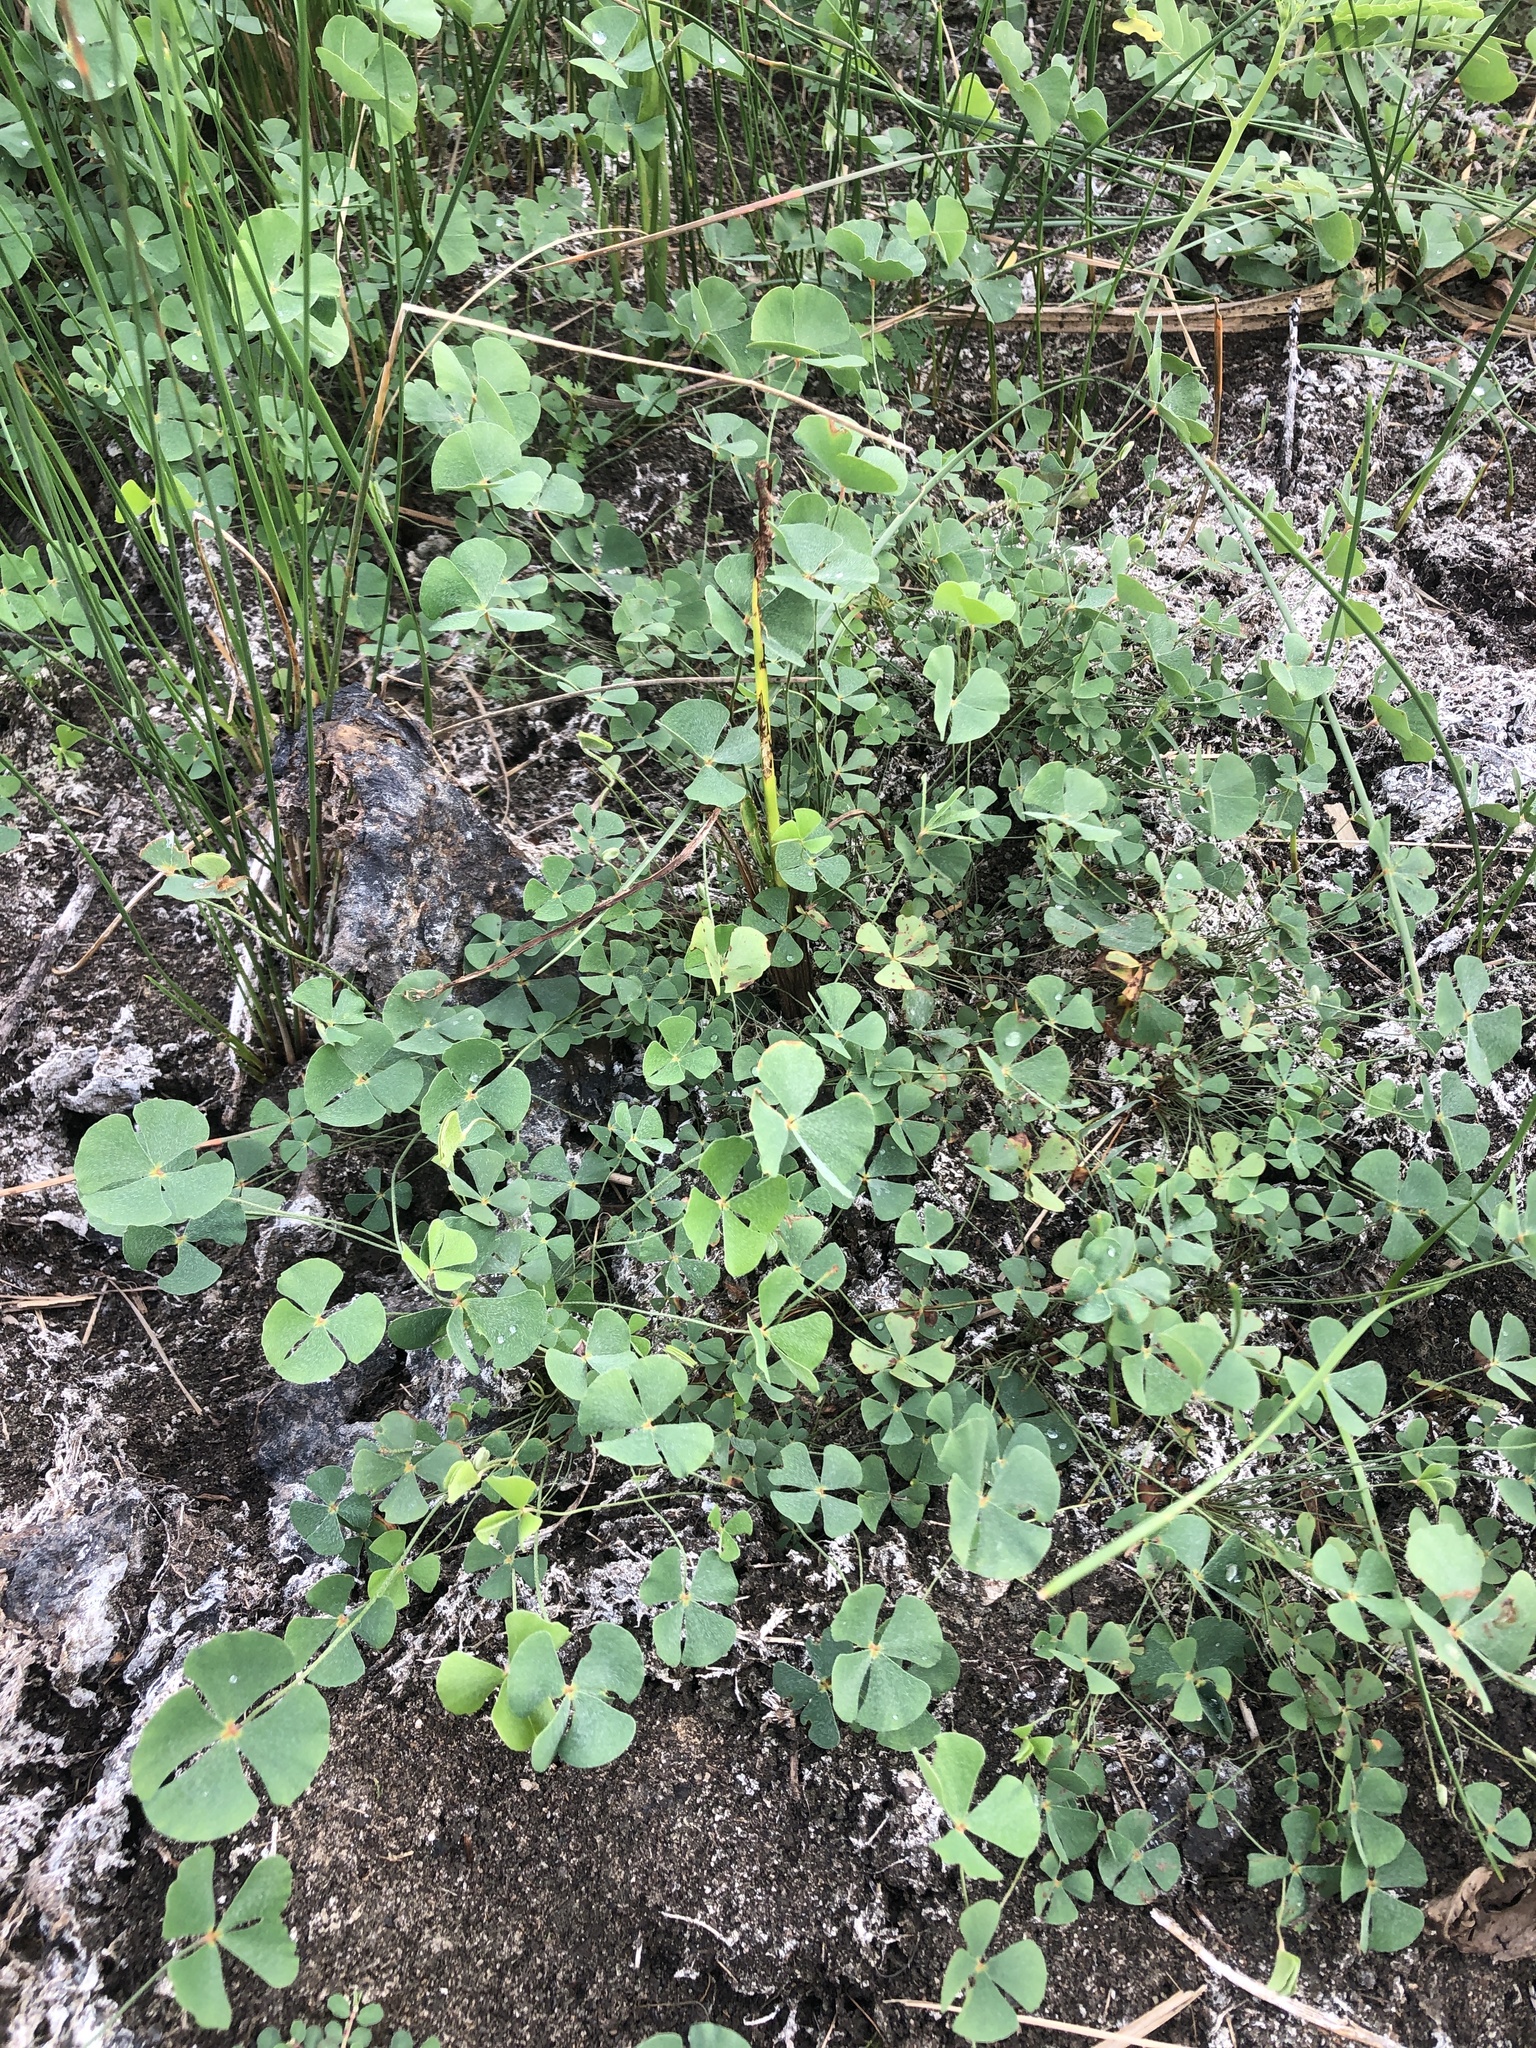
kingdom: Plantae
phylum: Tracheophyta
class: Polypodiopsida
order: Salviniales
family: Marsileaceae
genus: Marsilea
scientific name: Marsilea vestita
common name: Hooked-pepperwort
